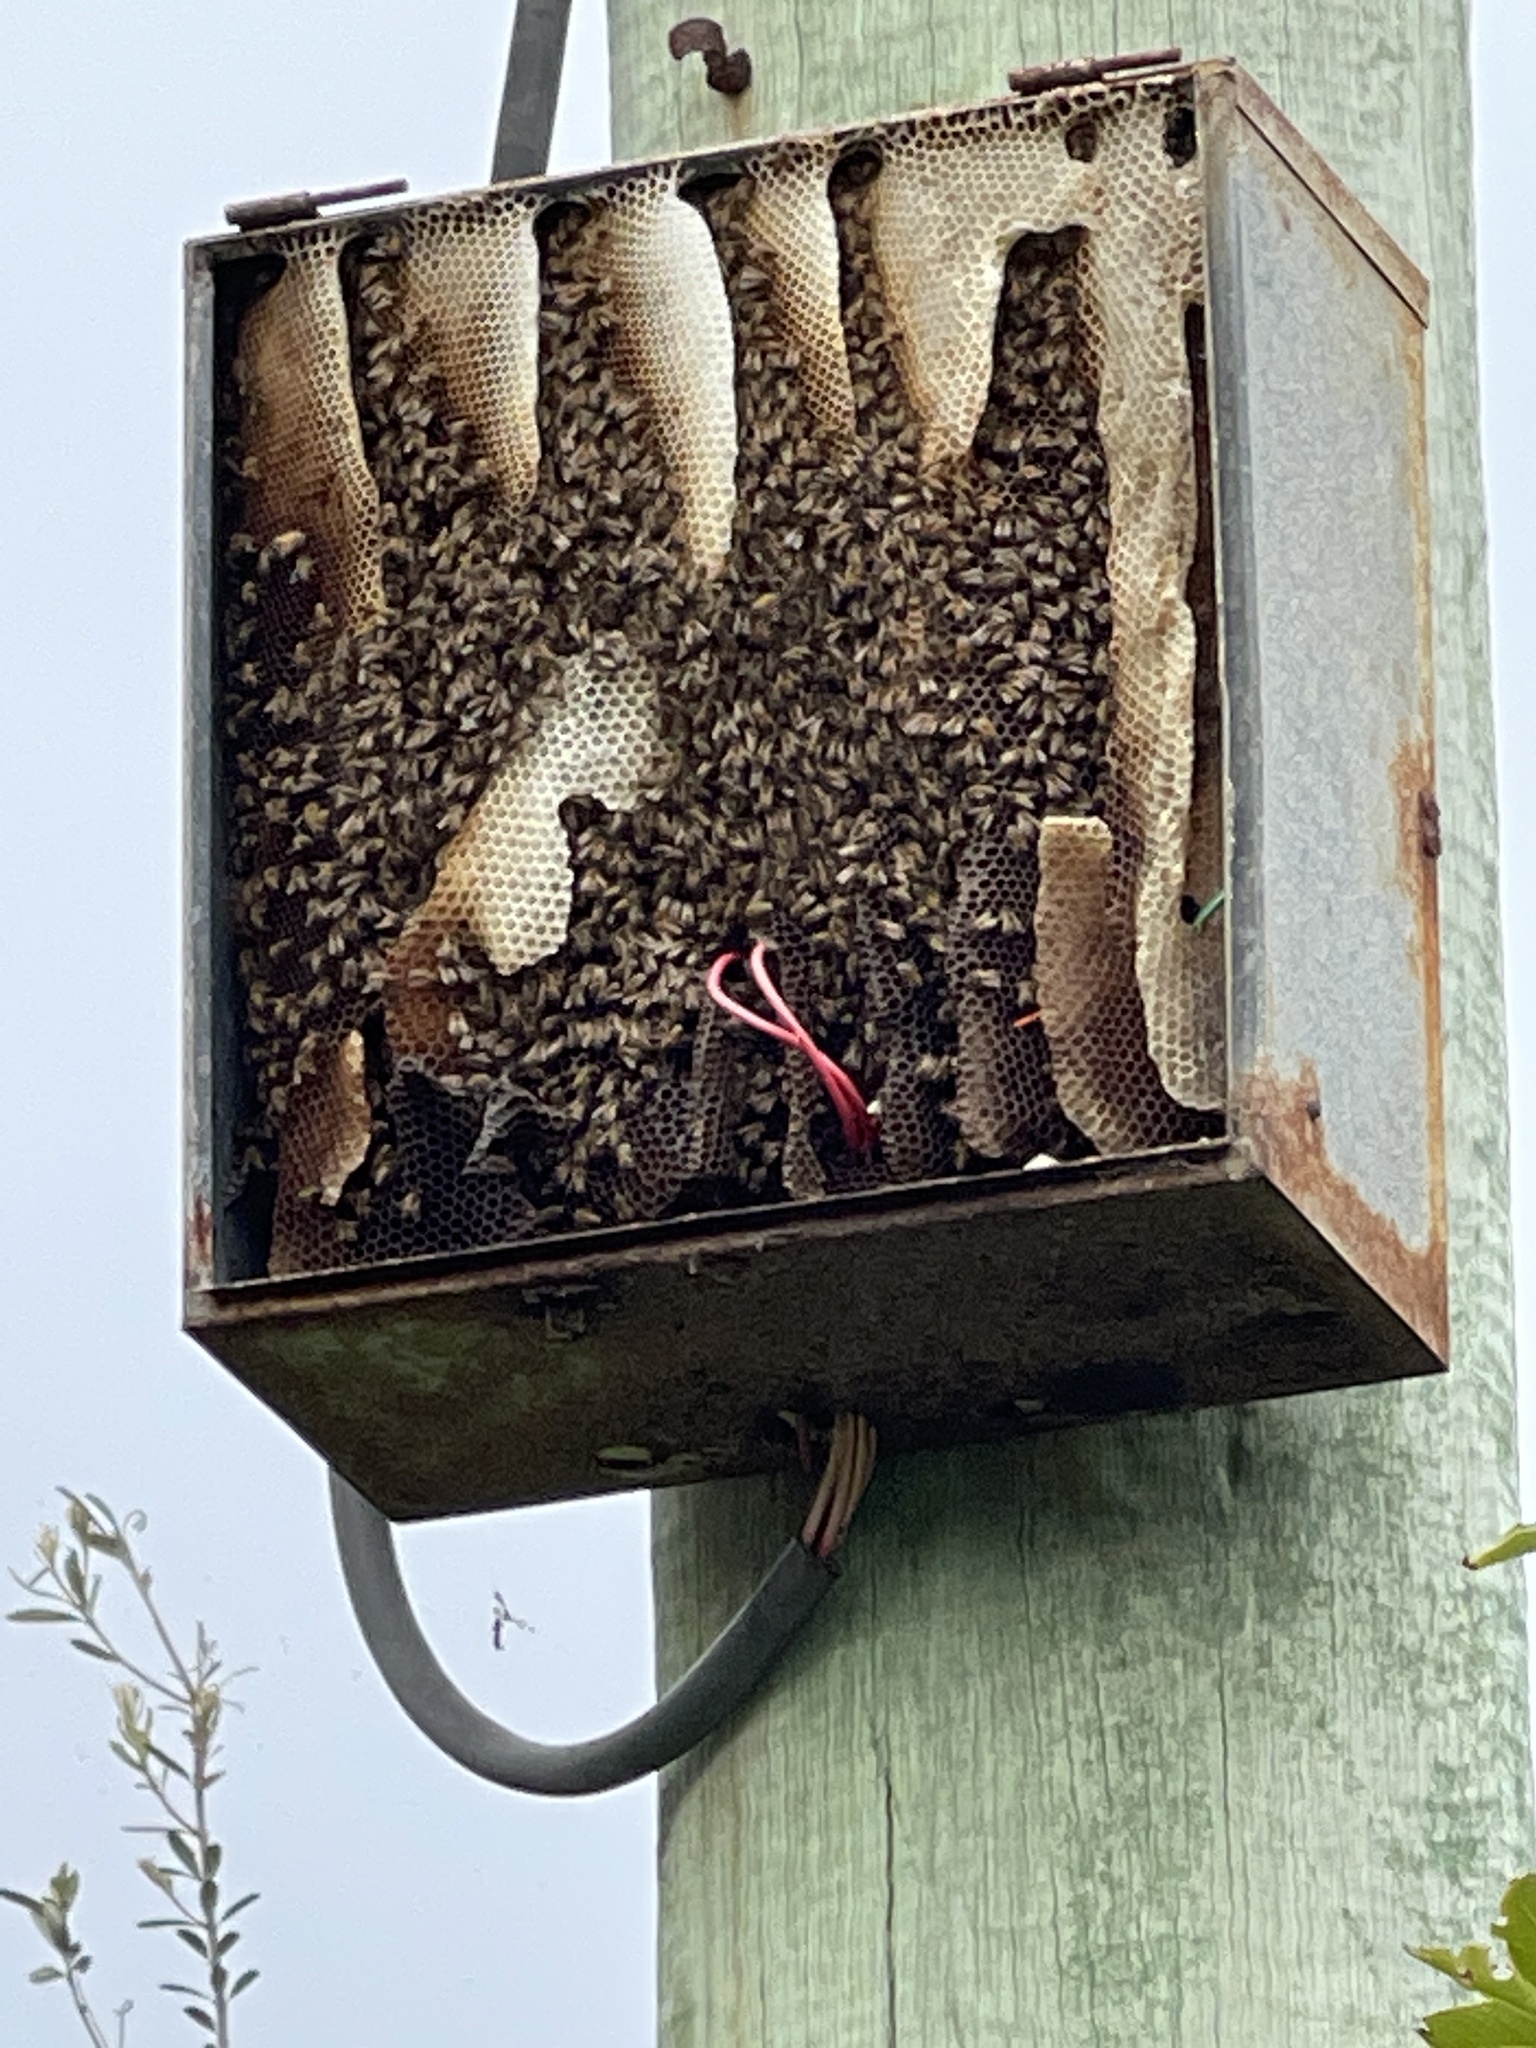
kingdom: Animalia
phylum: Arthropoda
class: Insecta
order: Hymenoptera
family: Apidae
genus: Apis
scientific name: Apis mellifera
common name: Honey bee
